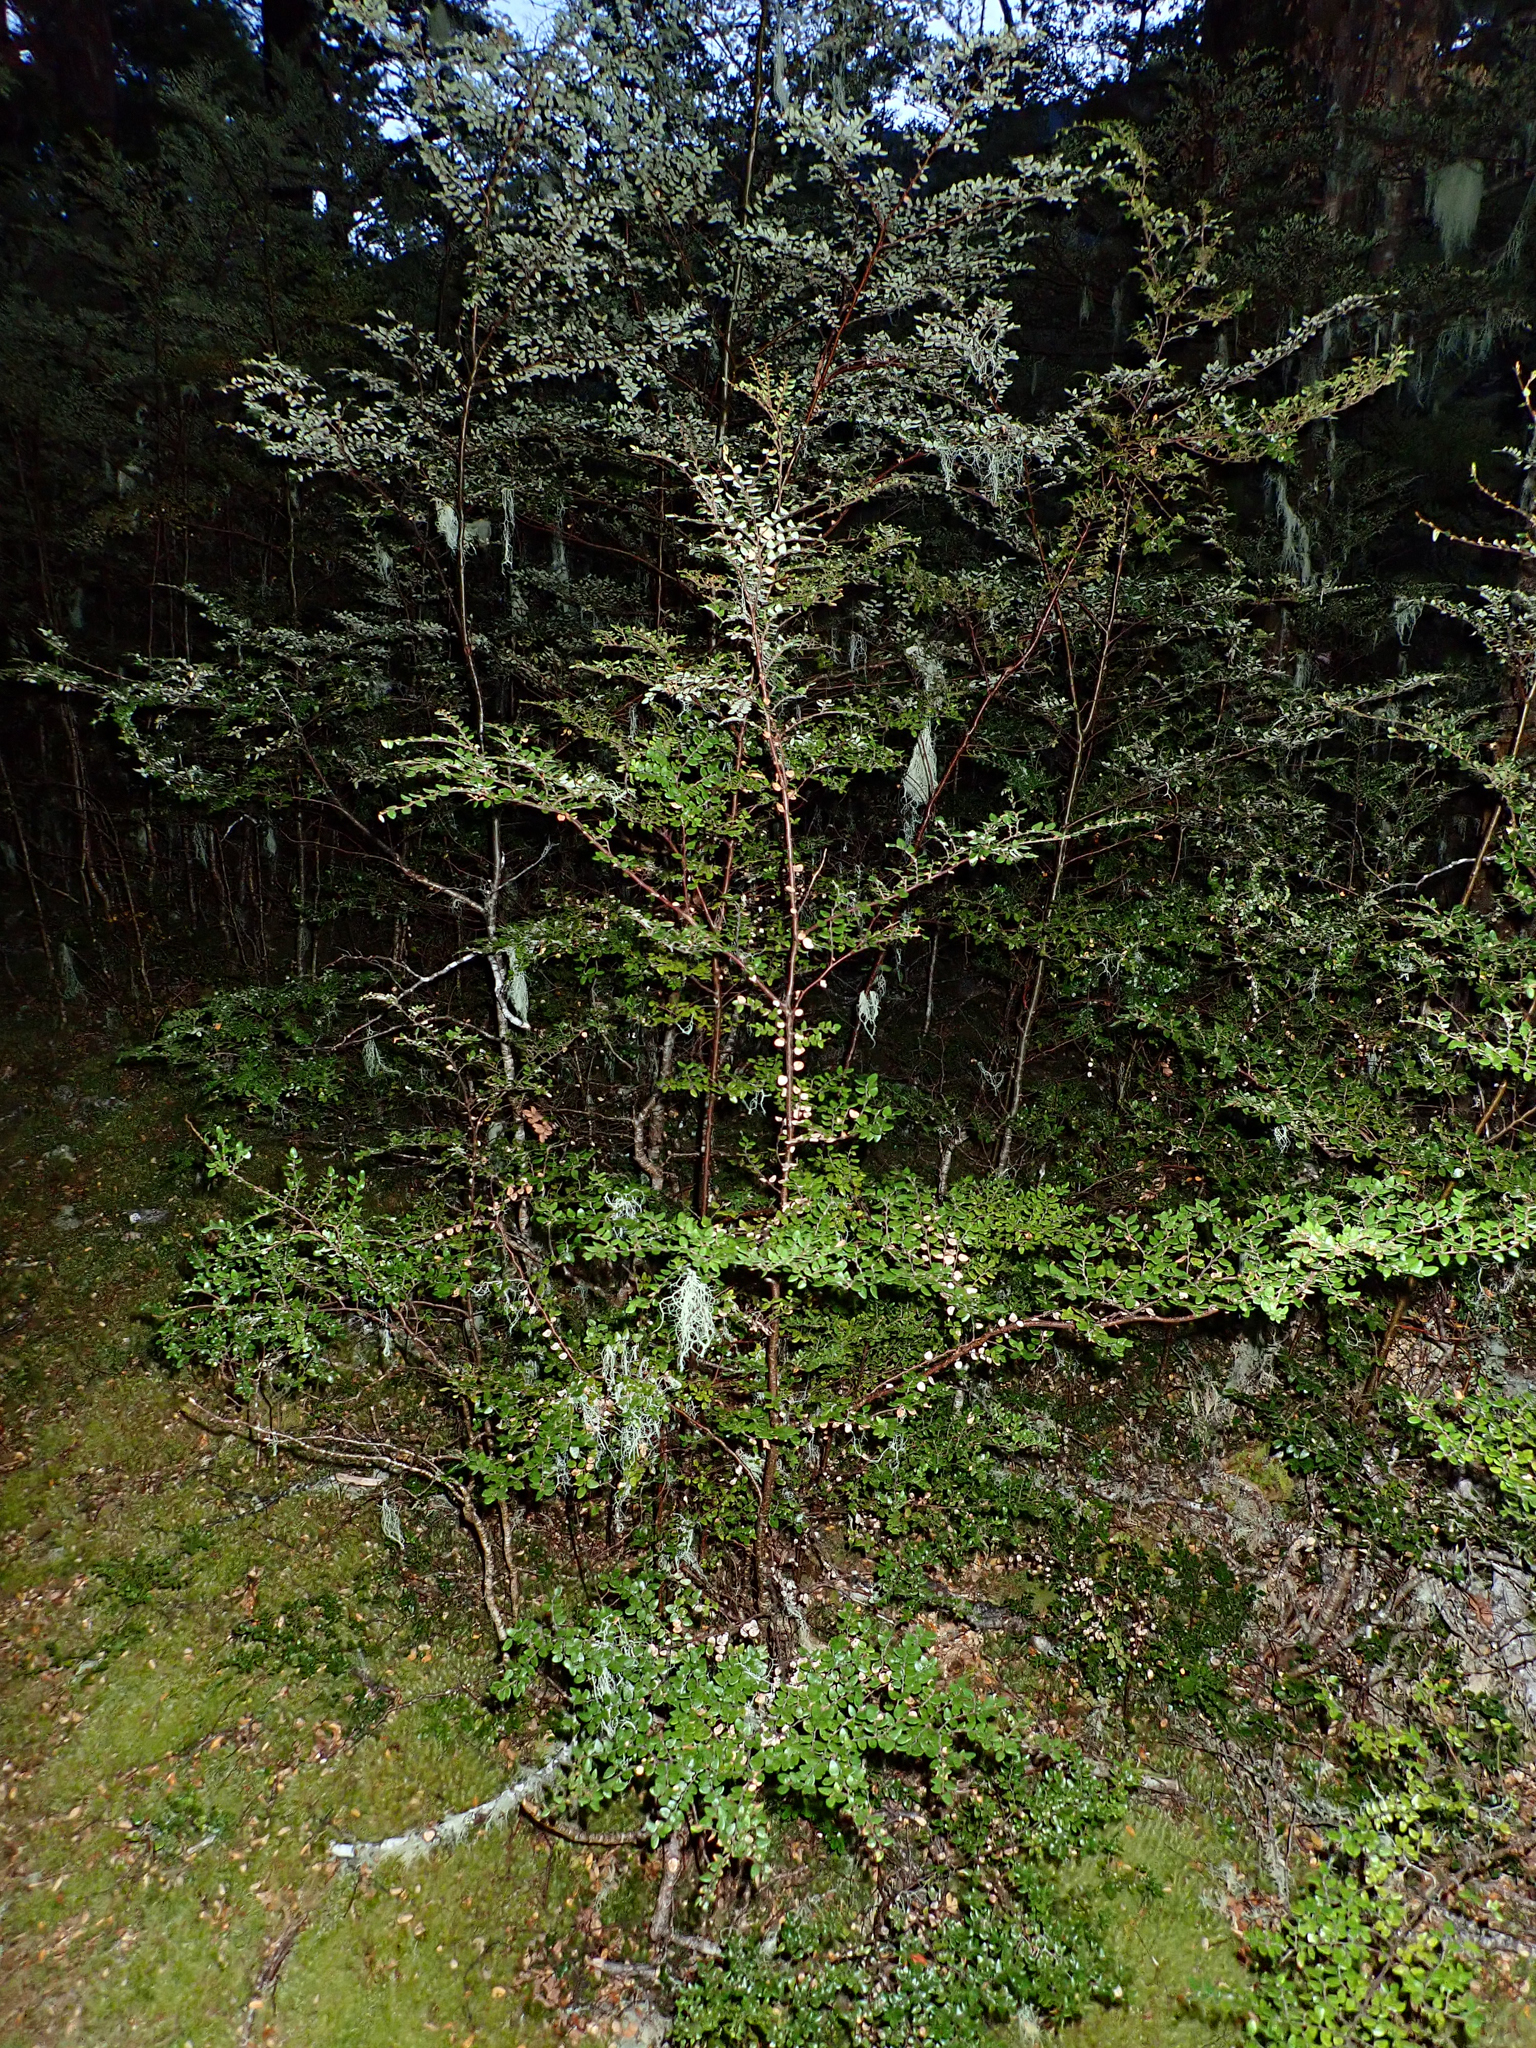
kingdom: Plantae
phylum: Tracheophyta
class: Magnoliopsida
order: Fagales
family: Nothofagaceae
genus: Nothofagus
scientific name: Nothofagus cliffortioides
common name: Mountain beech
